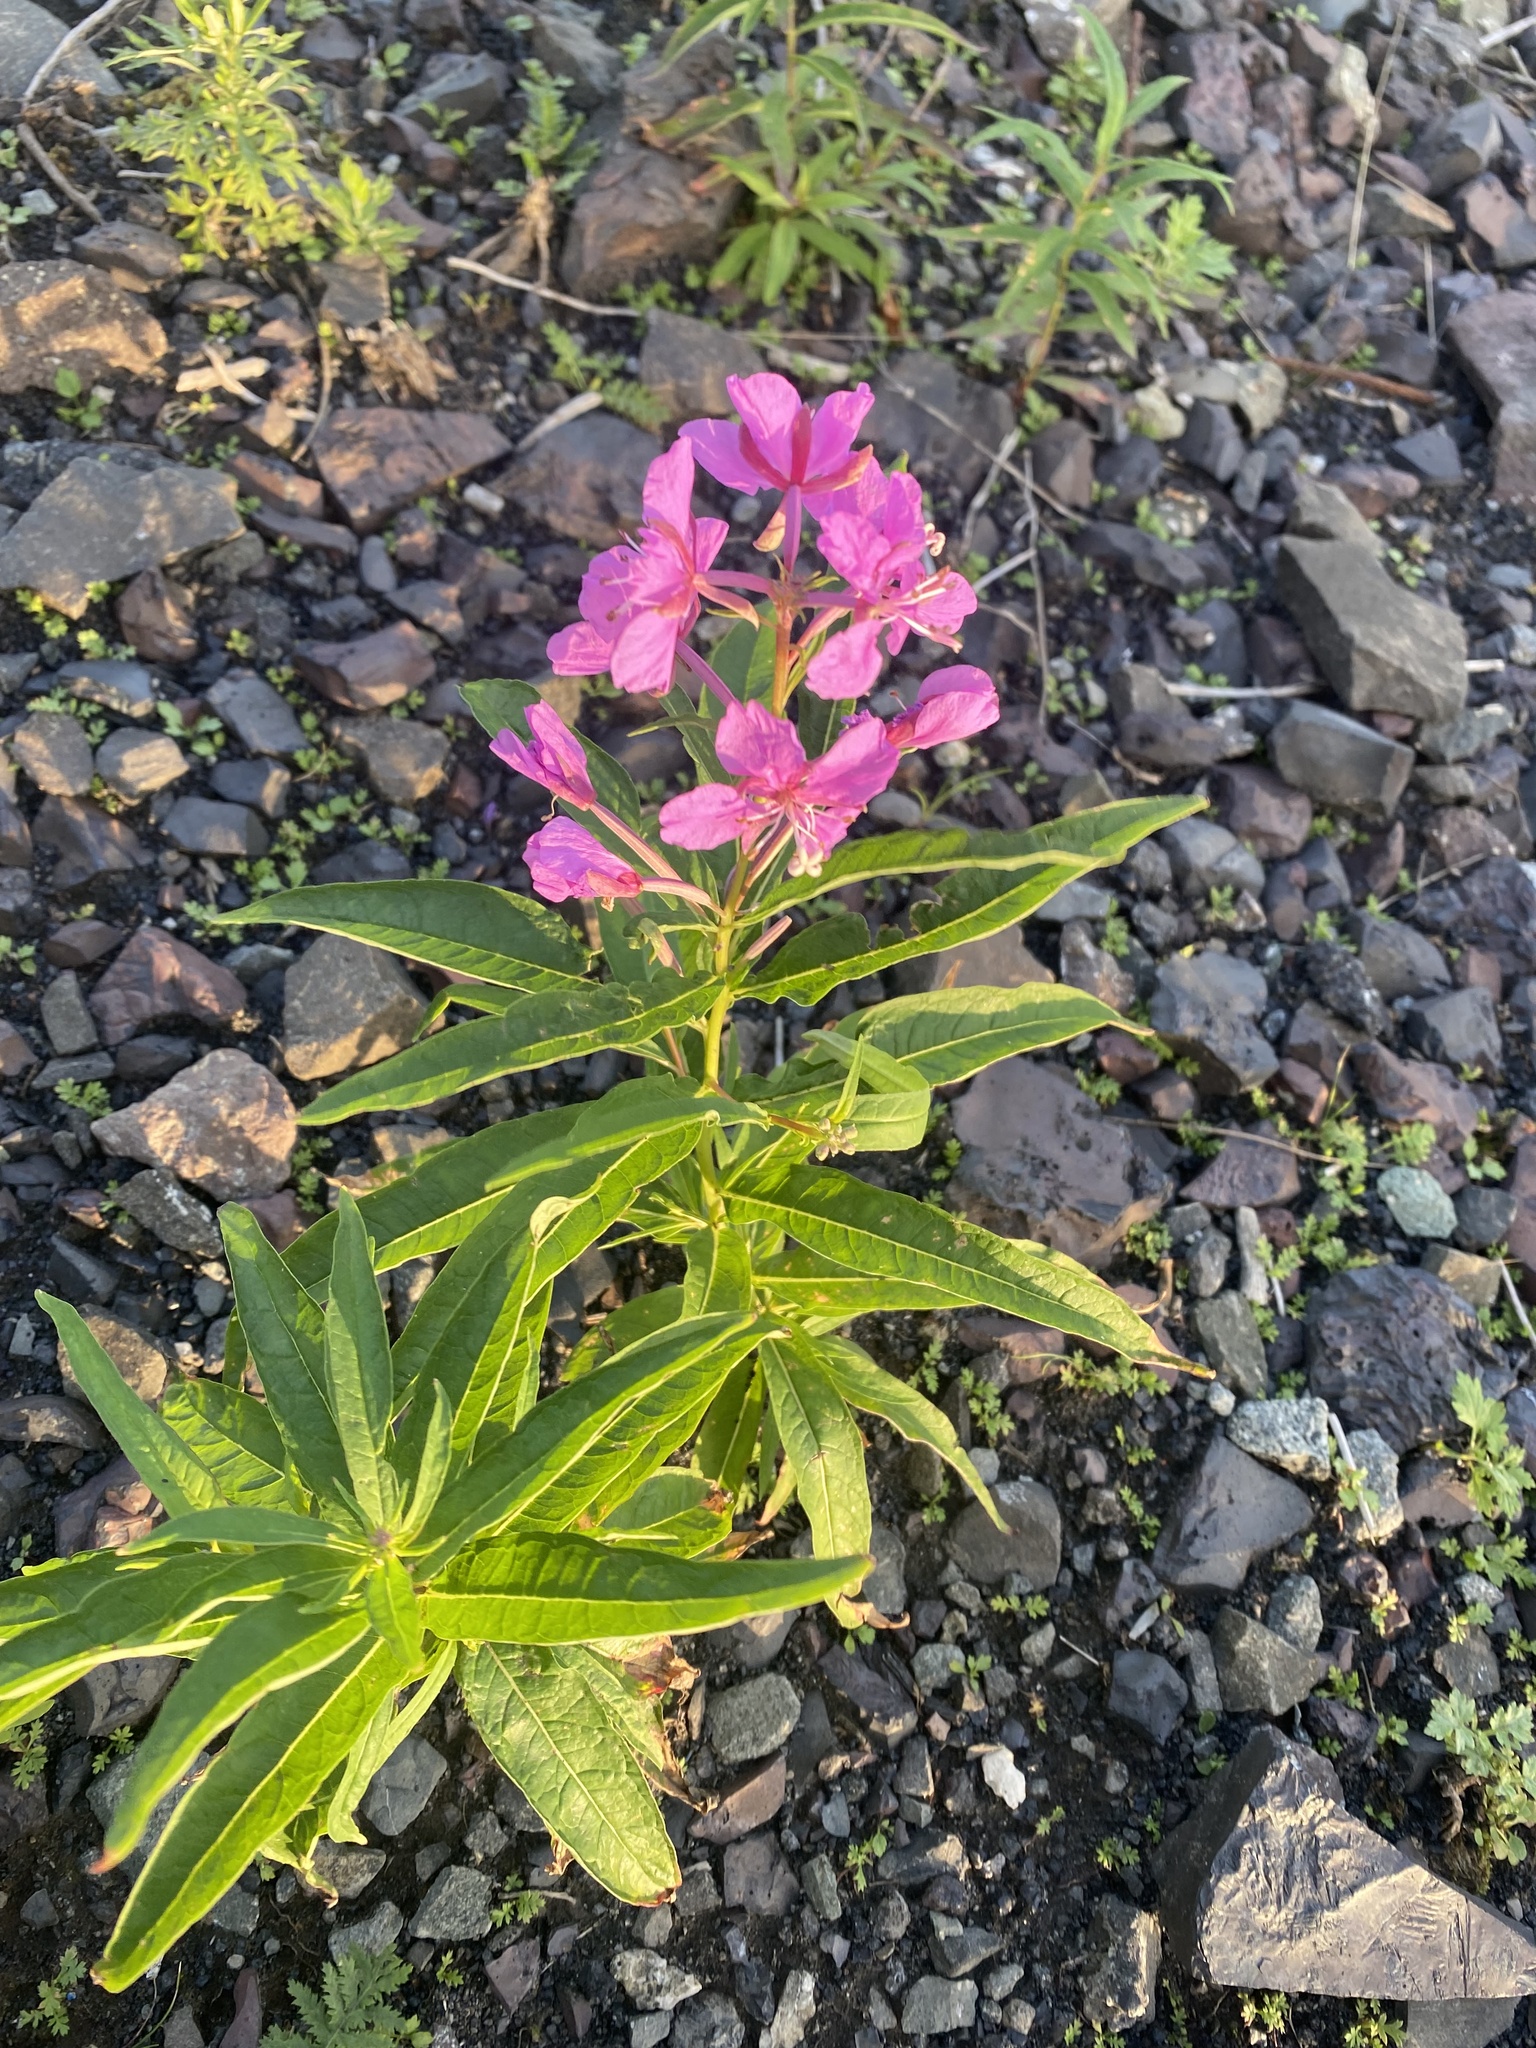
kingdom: Plantae
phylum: Tracheophyta
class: Magnoliopsida
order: Myrtales
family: Onagraceae
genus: Chamaenerion
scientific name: Chamaenerion angustifolium
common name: Fireweed
